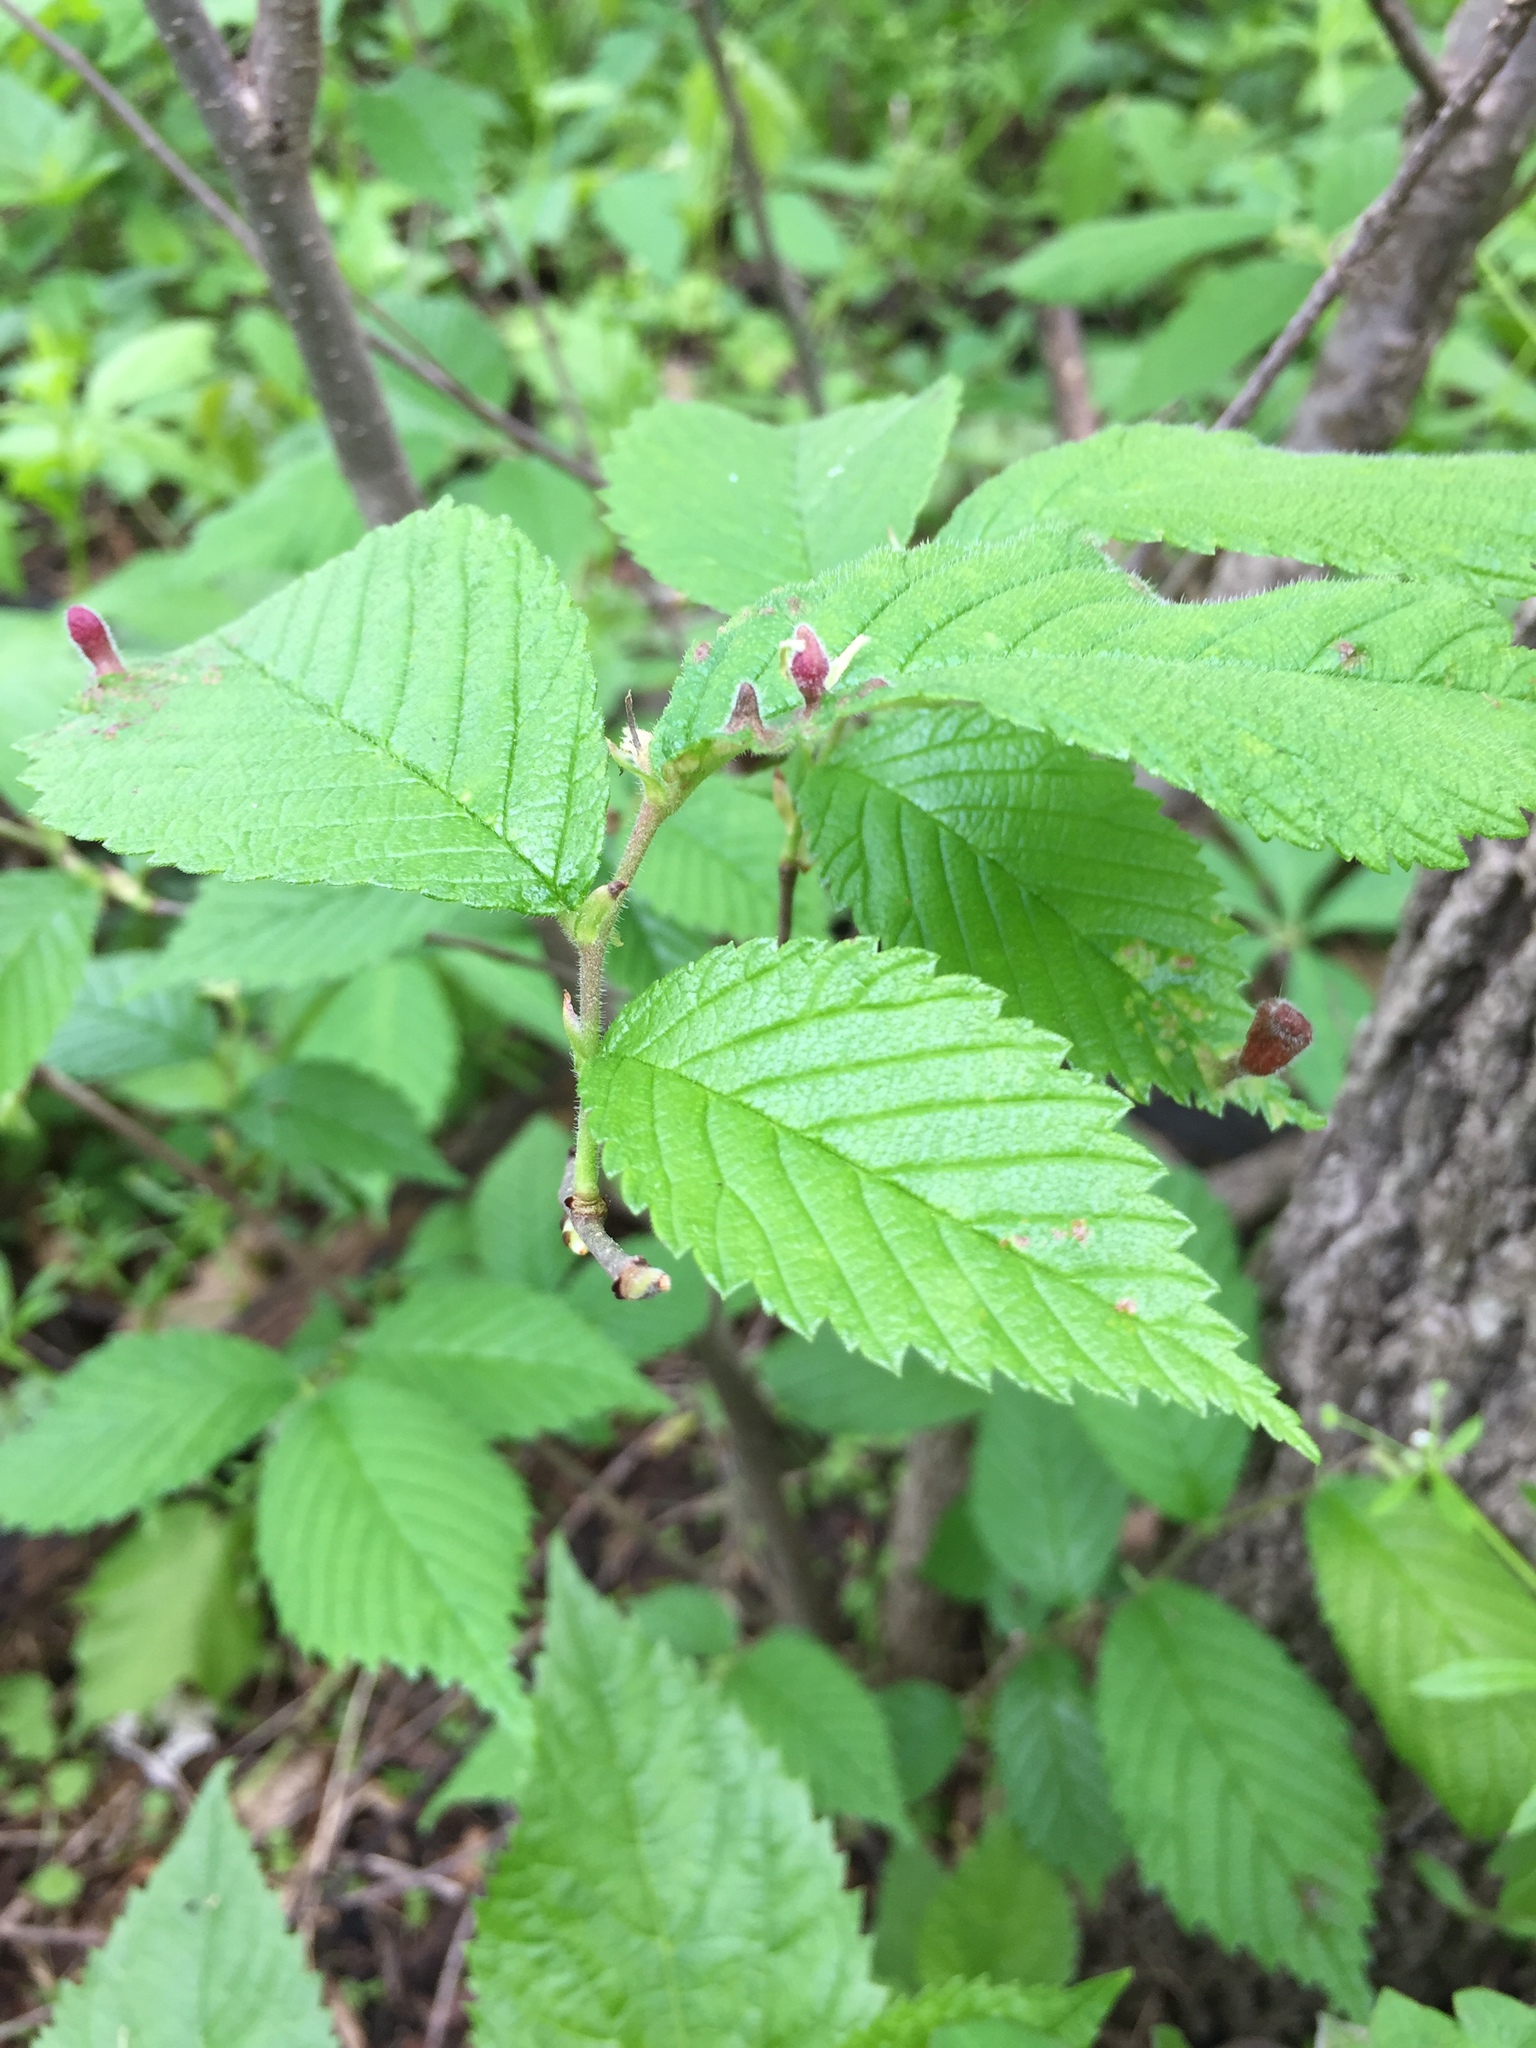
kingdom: Animalia
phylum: Arthropoda
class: Insecta
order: Hemiptera
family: Aphididae
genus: Tetraneura
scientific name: Tetraneura nigriabdominalis
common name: Aphid
